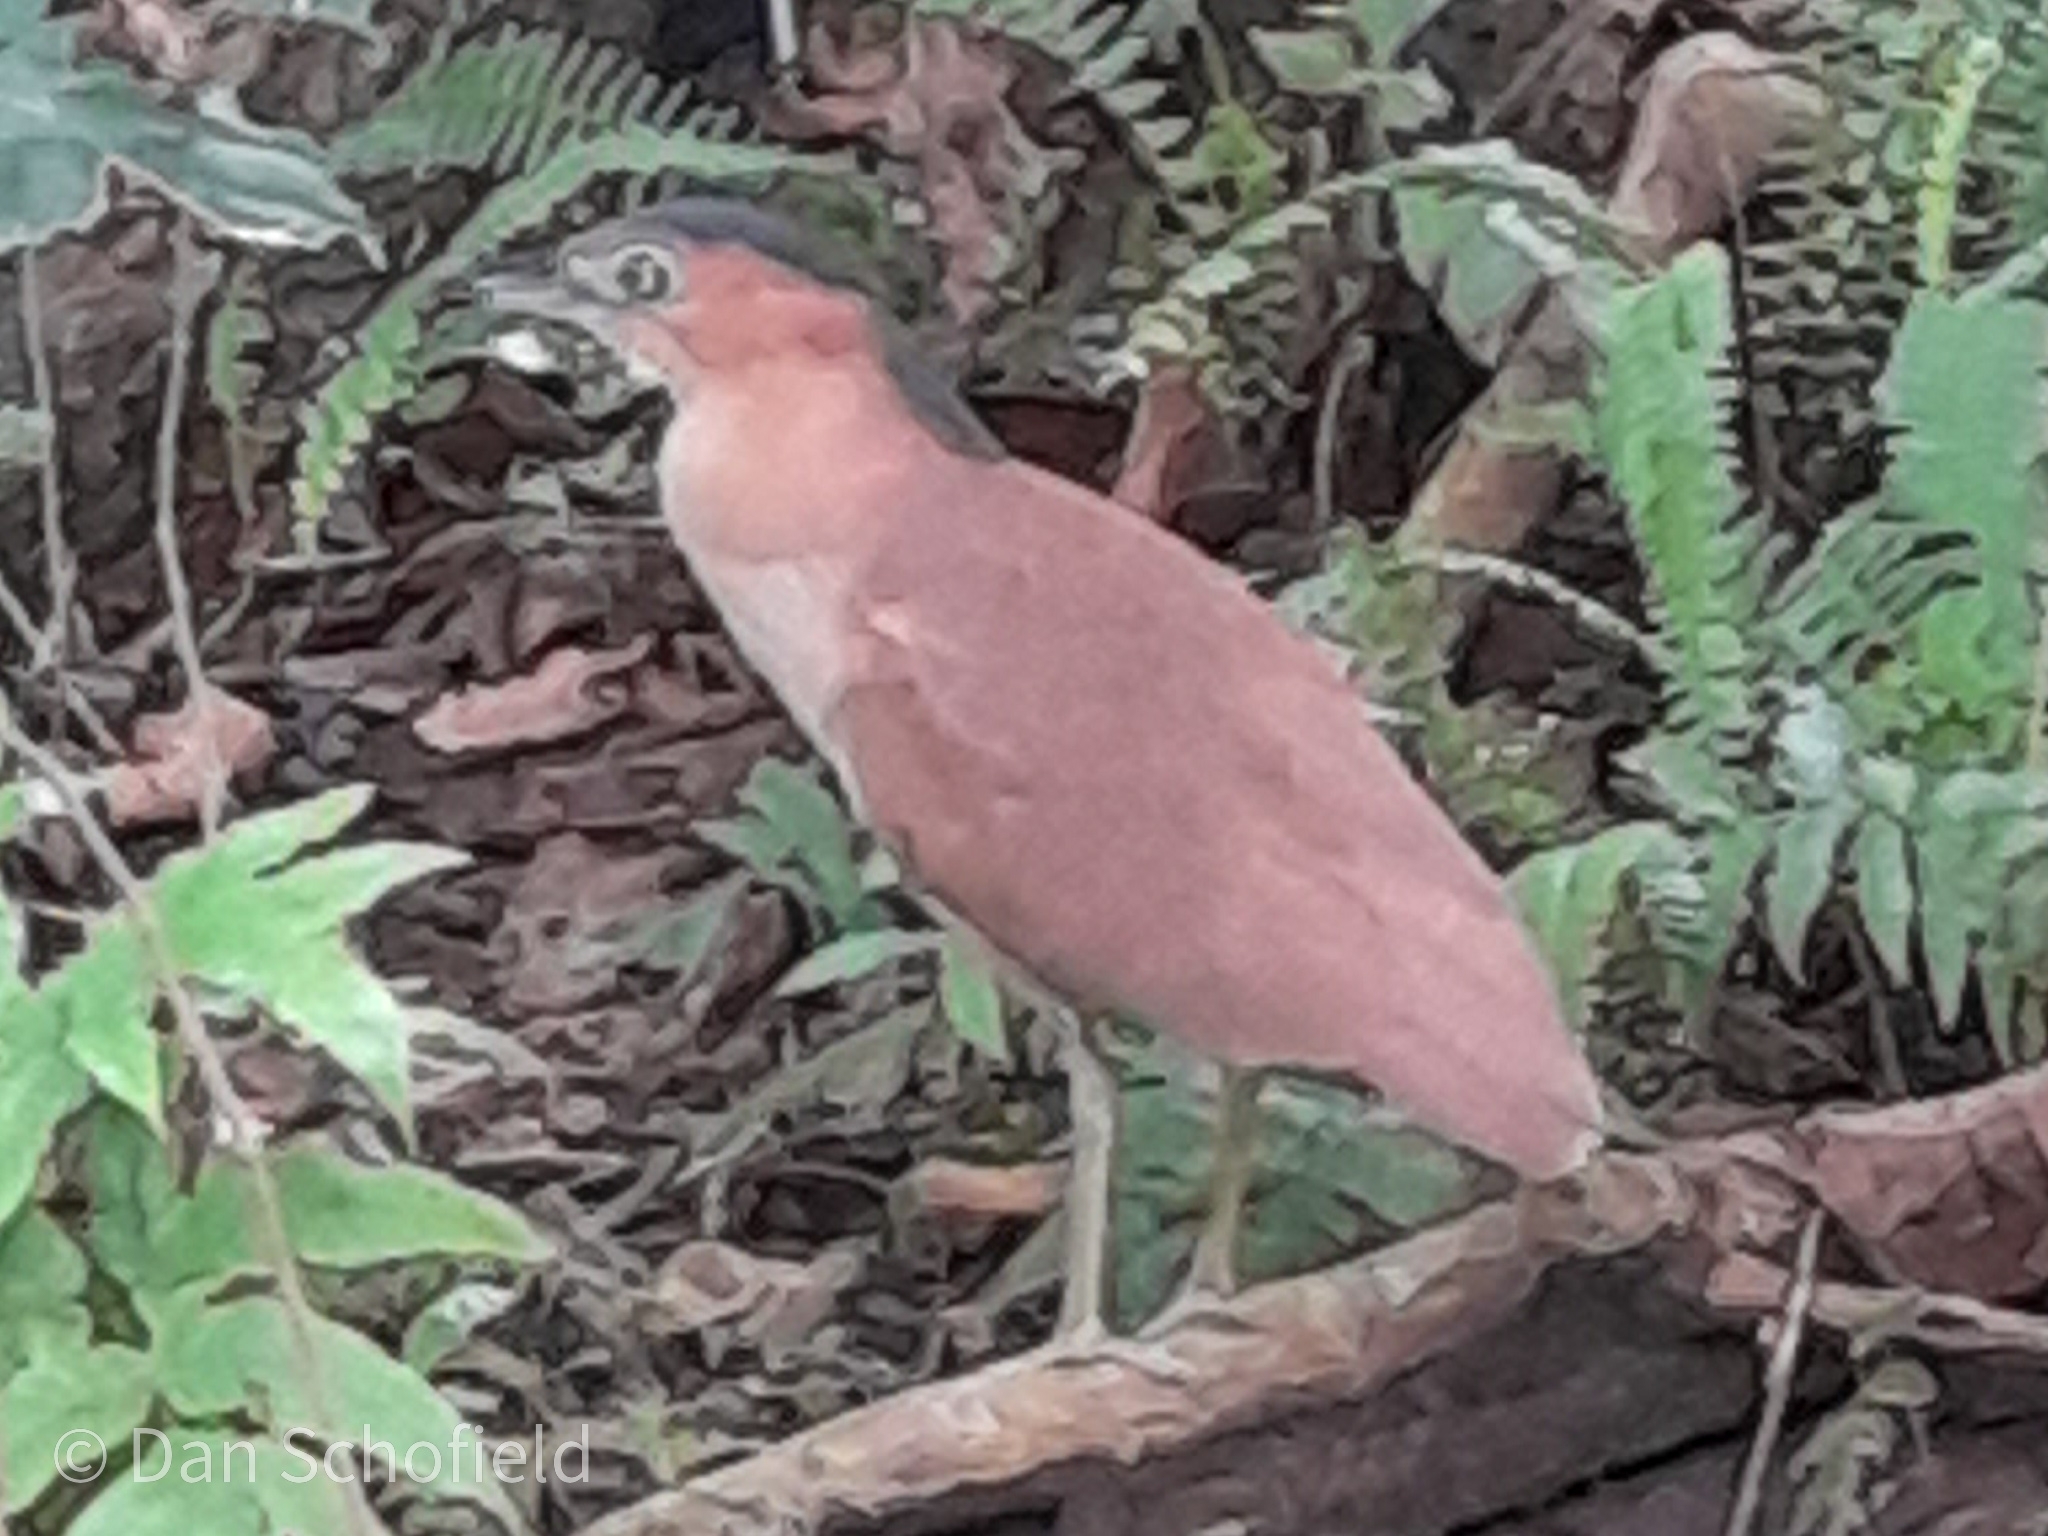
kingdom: Animalia
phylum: Chordata
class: Aves
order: Pelecaniformes
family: Ardeidae
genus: Gorsachius
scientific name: Gorsachius melanolophus
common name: Malayan night heron
